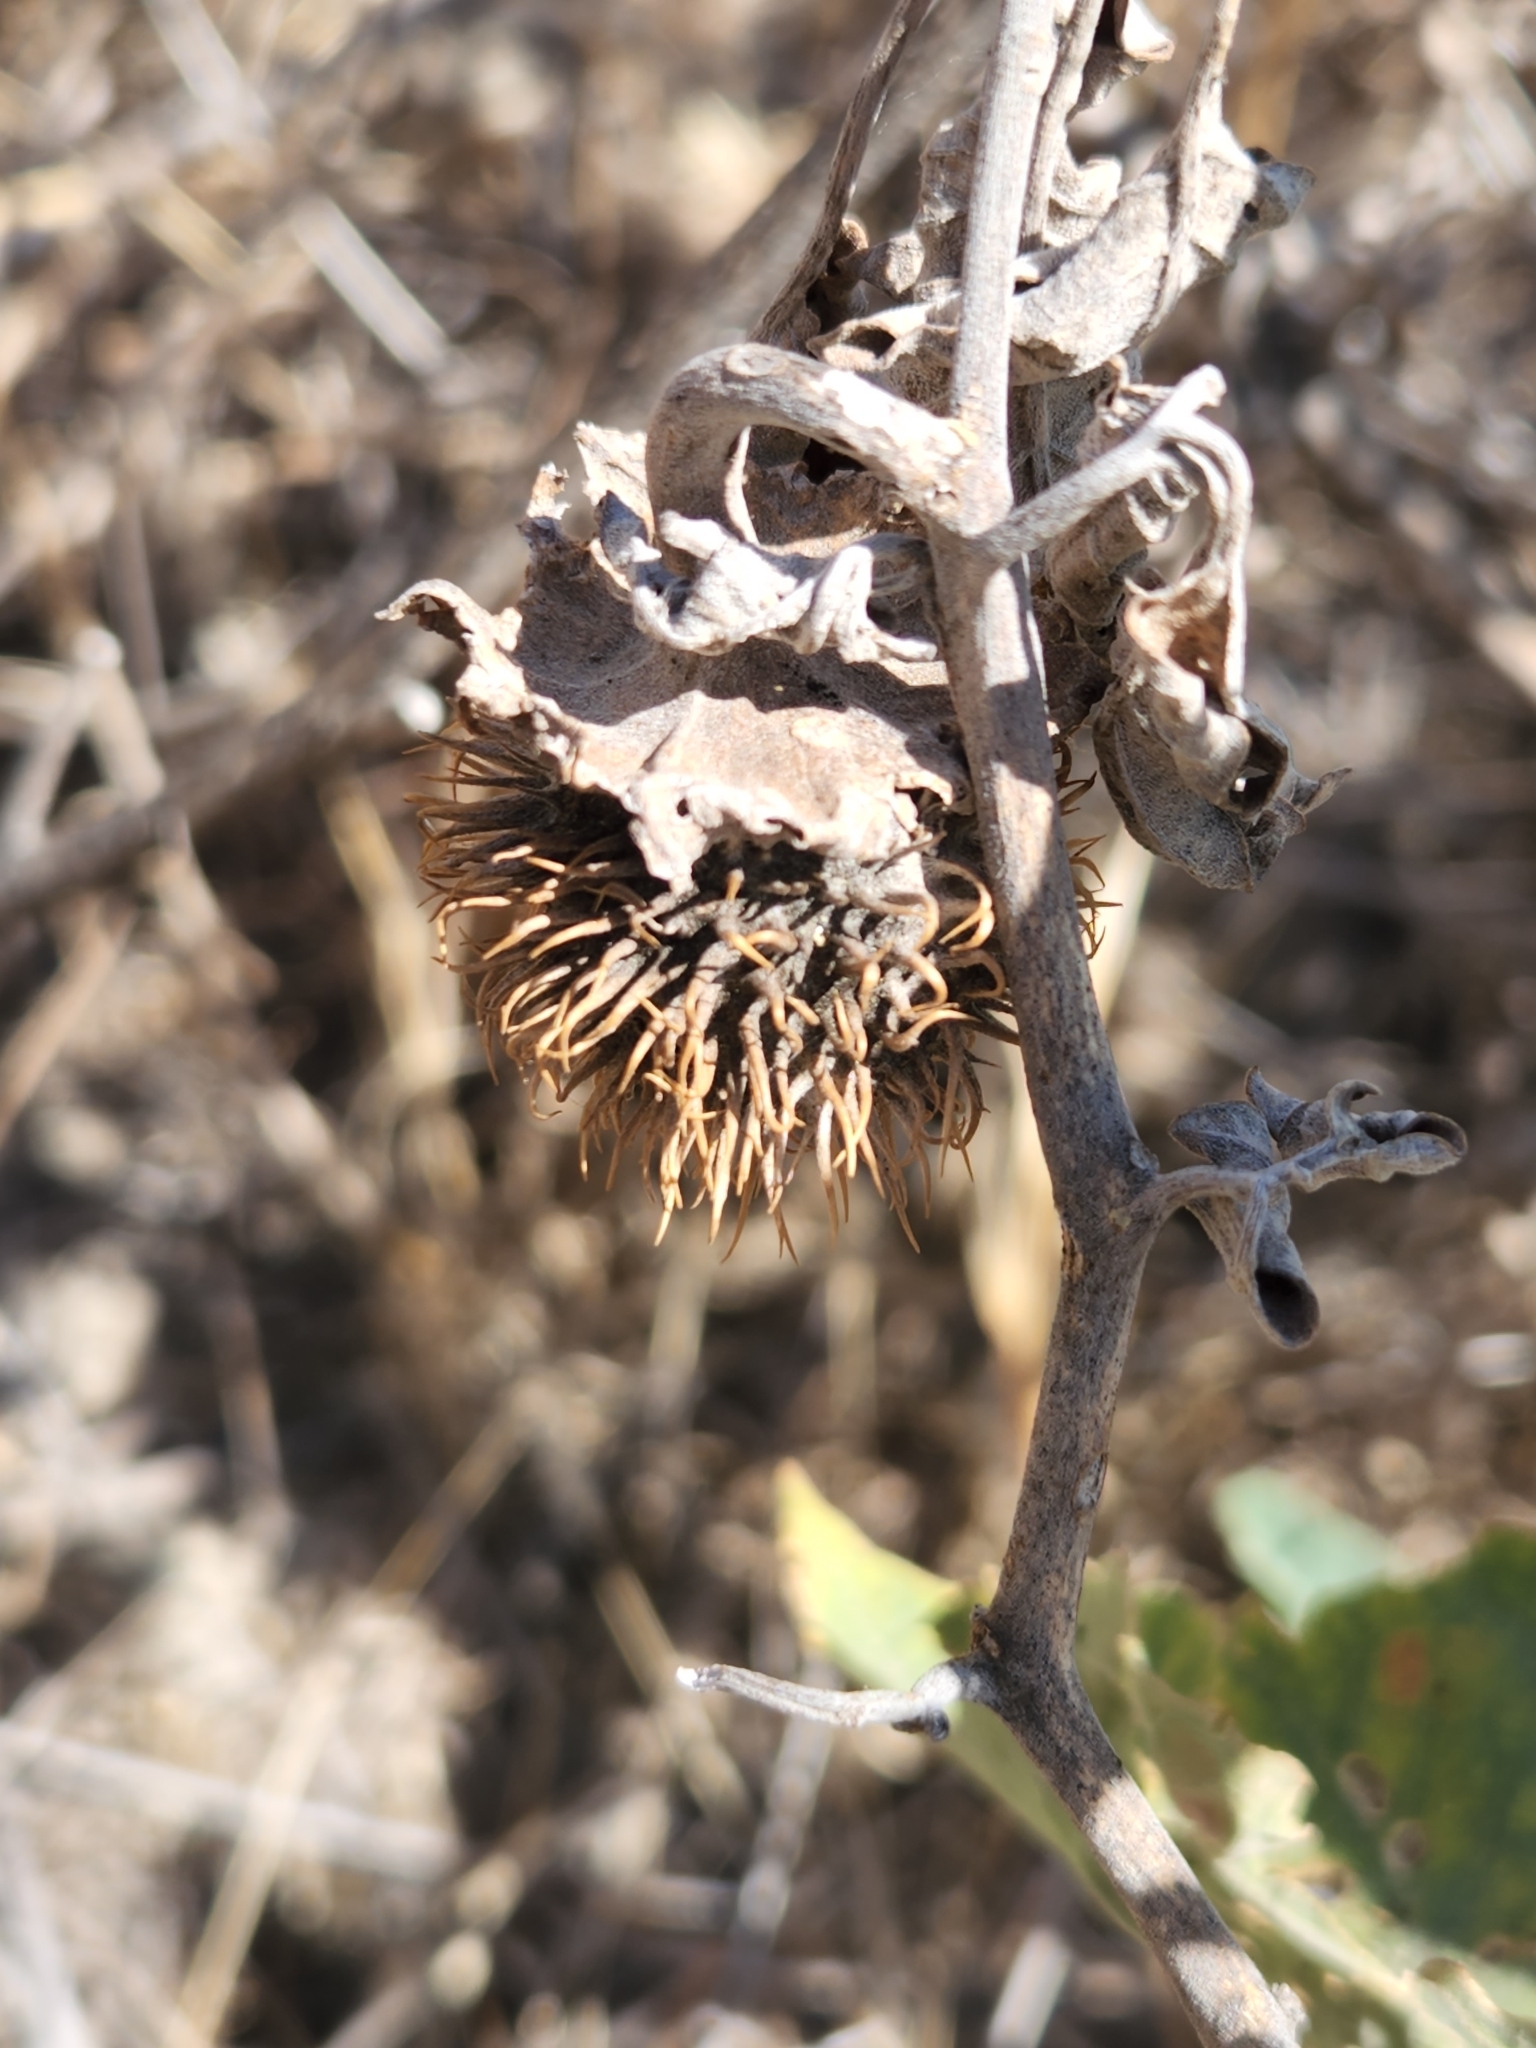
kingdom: Plantae
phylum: Tracheophyta
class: Magnoliopsida
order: Solanales
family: Solanaceae
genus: Datura
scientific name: Datura wrightii
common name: Sacred thorn-apple
